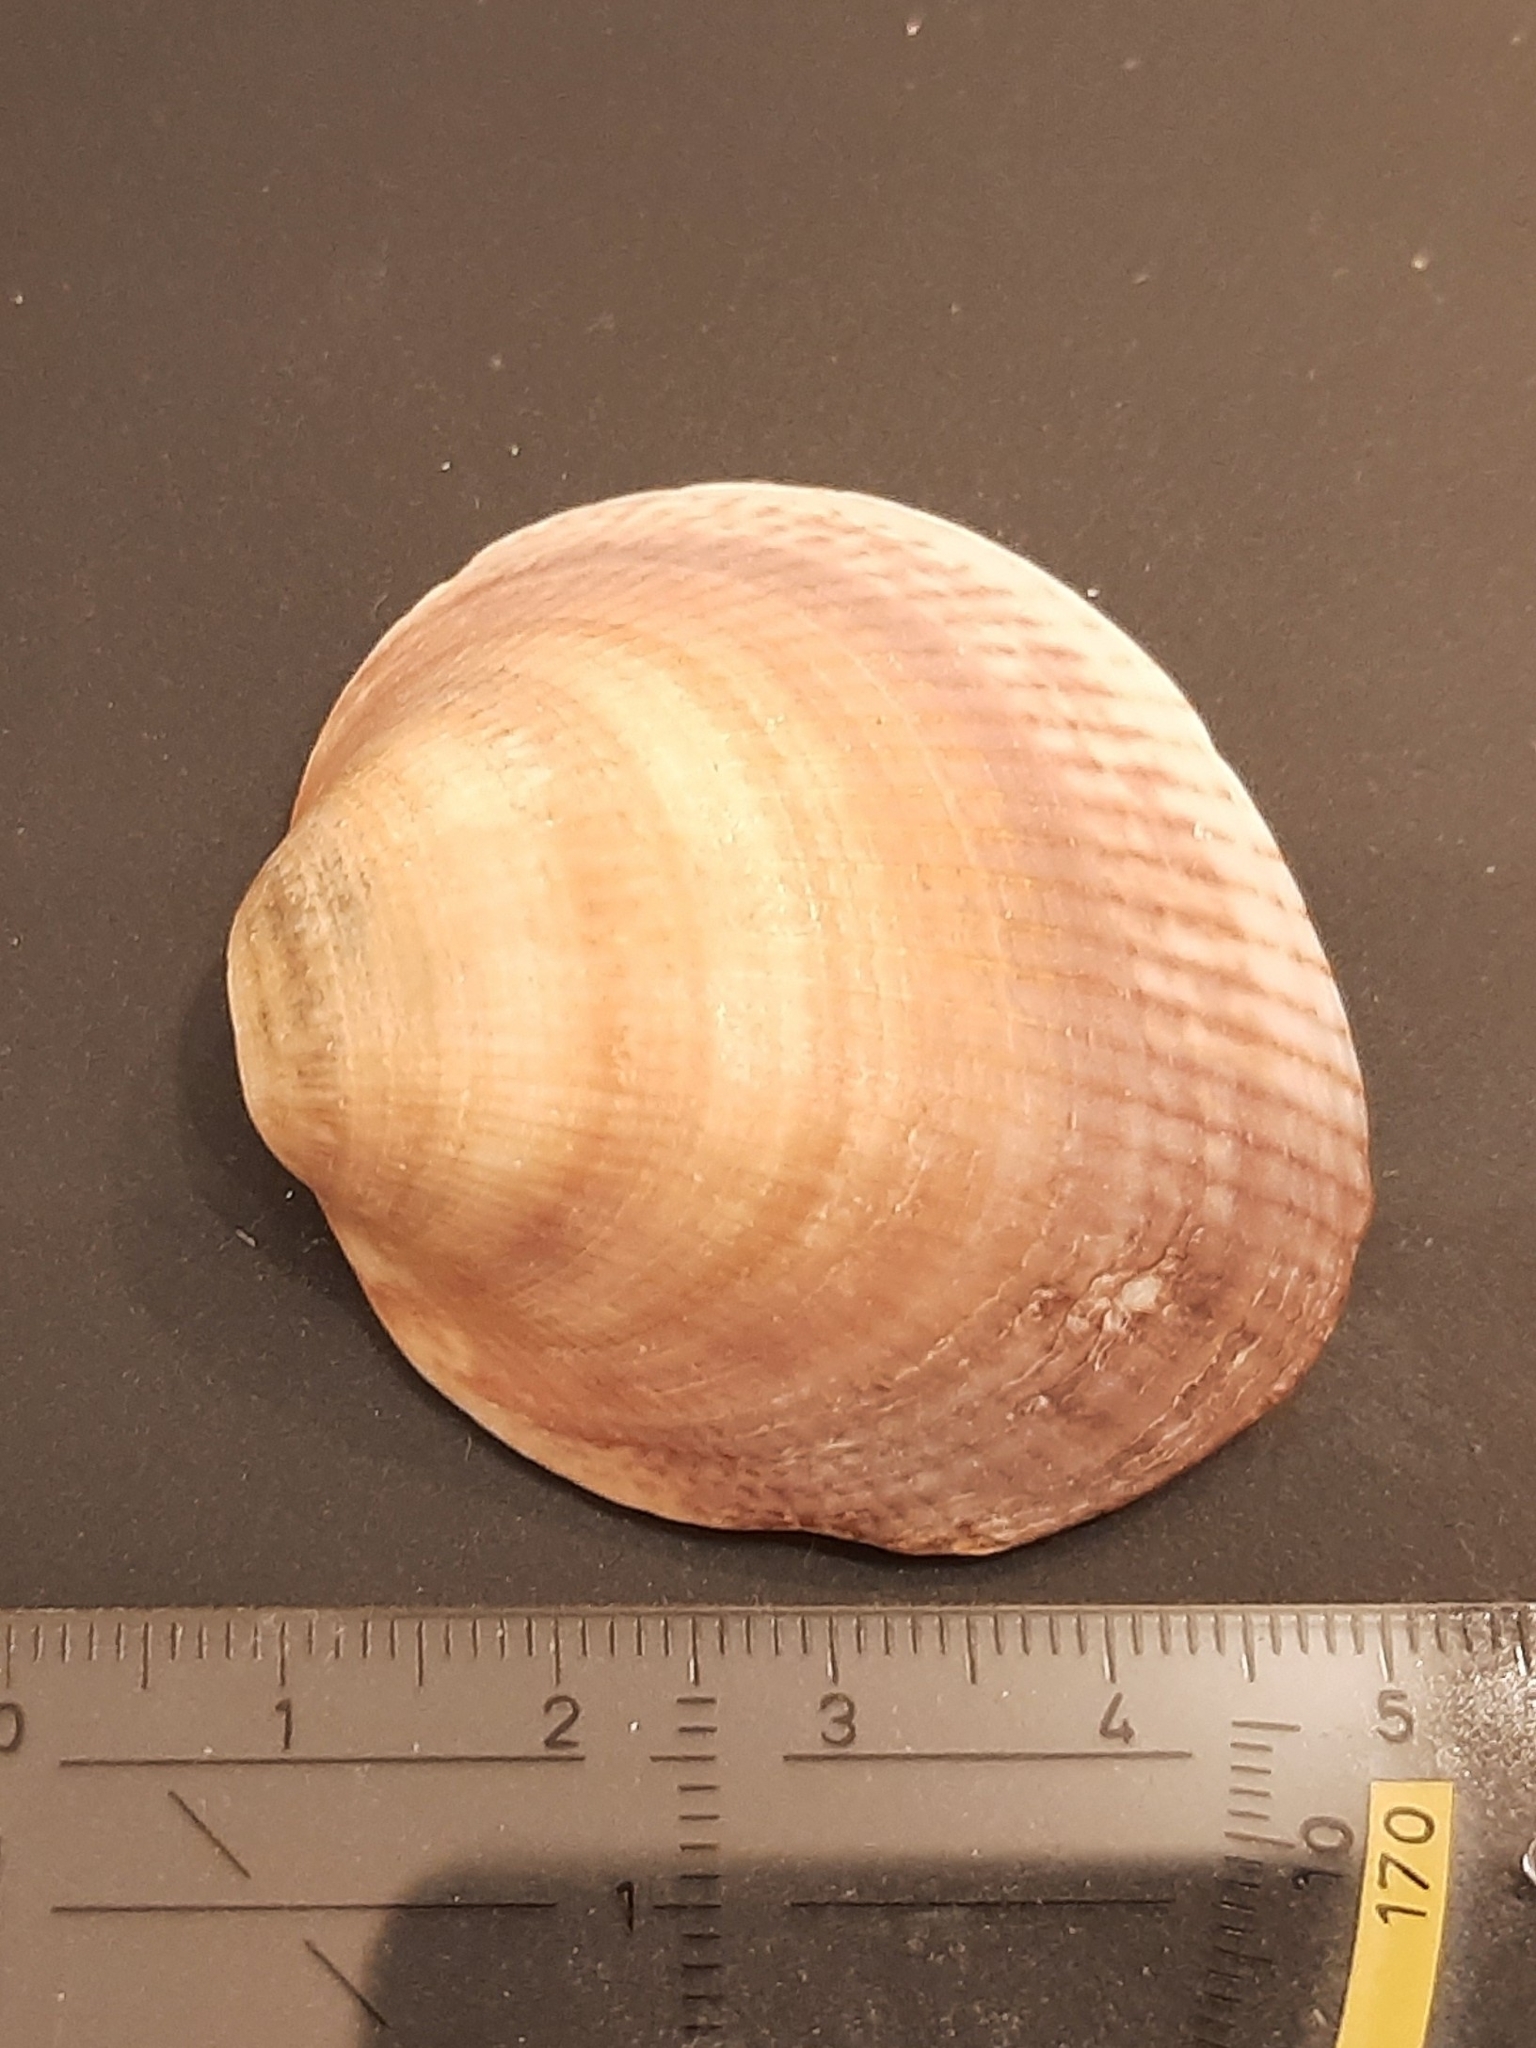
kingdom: Animalia
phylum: Mollusca
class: Bivalvia
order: Arcida
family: Glycymerididae
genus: Glycymeris
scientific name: Glycymeris glycymeris
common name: Dog-cockle
